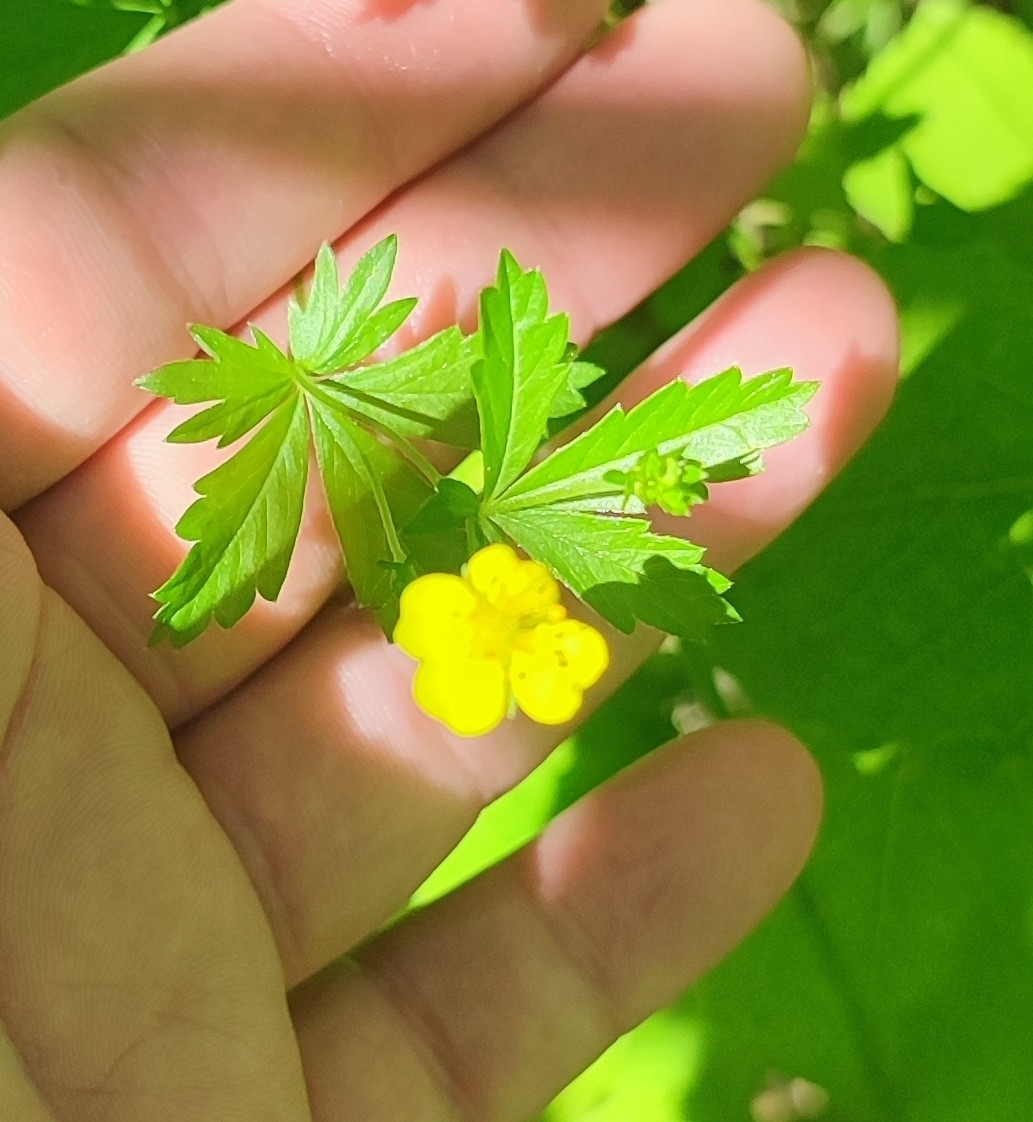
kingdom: Plantae
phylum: Tracheophyta
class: Magnoliopsida
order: Rosales
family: Rosaceae
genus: Potentilla
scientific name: Potentilla erecta
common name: Tormentil
